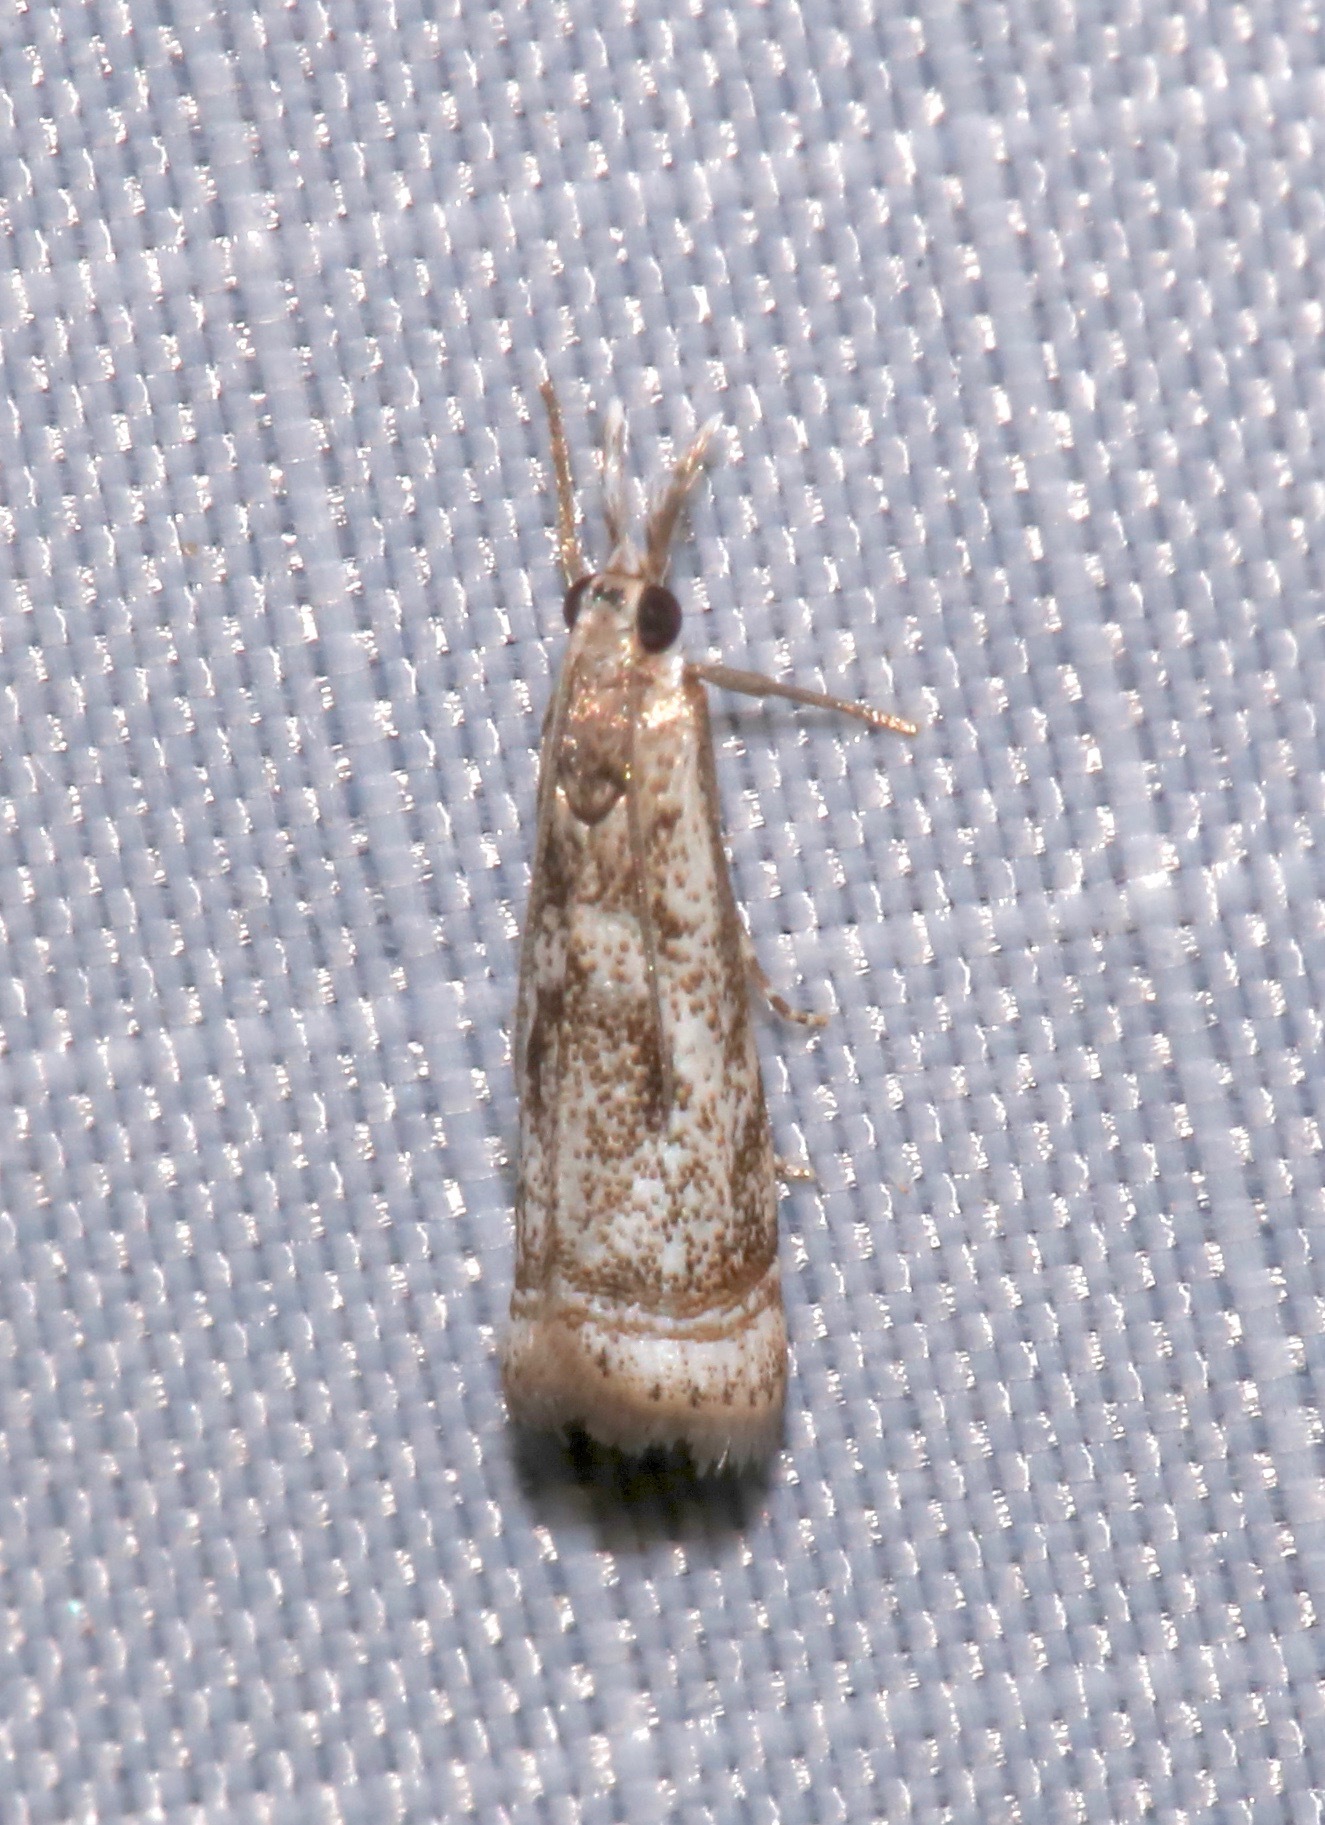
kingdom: Animalia
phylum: Arthropoda
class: Insecta
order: Lepidoptera
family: Crambidae
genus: Microcrambus
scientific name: Microcrambus elegans
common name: Elegant grass-veneer
